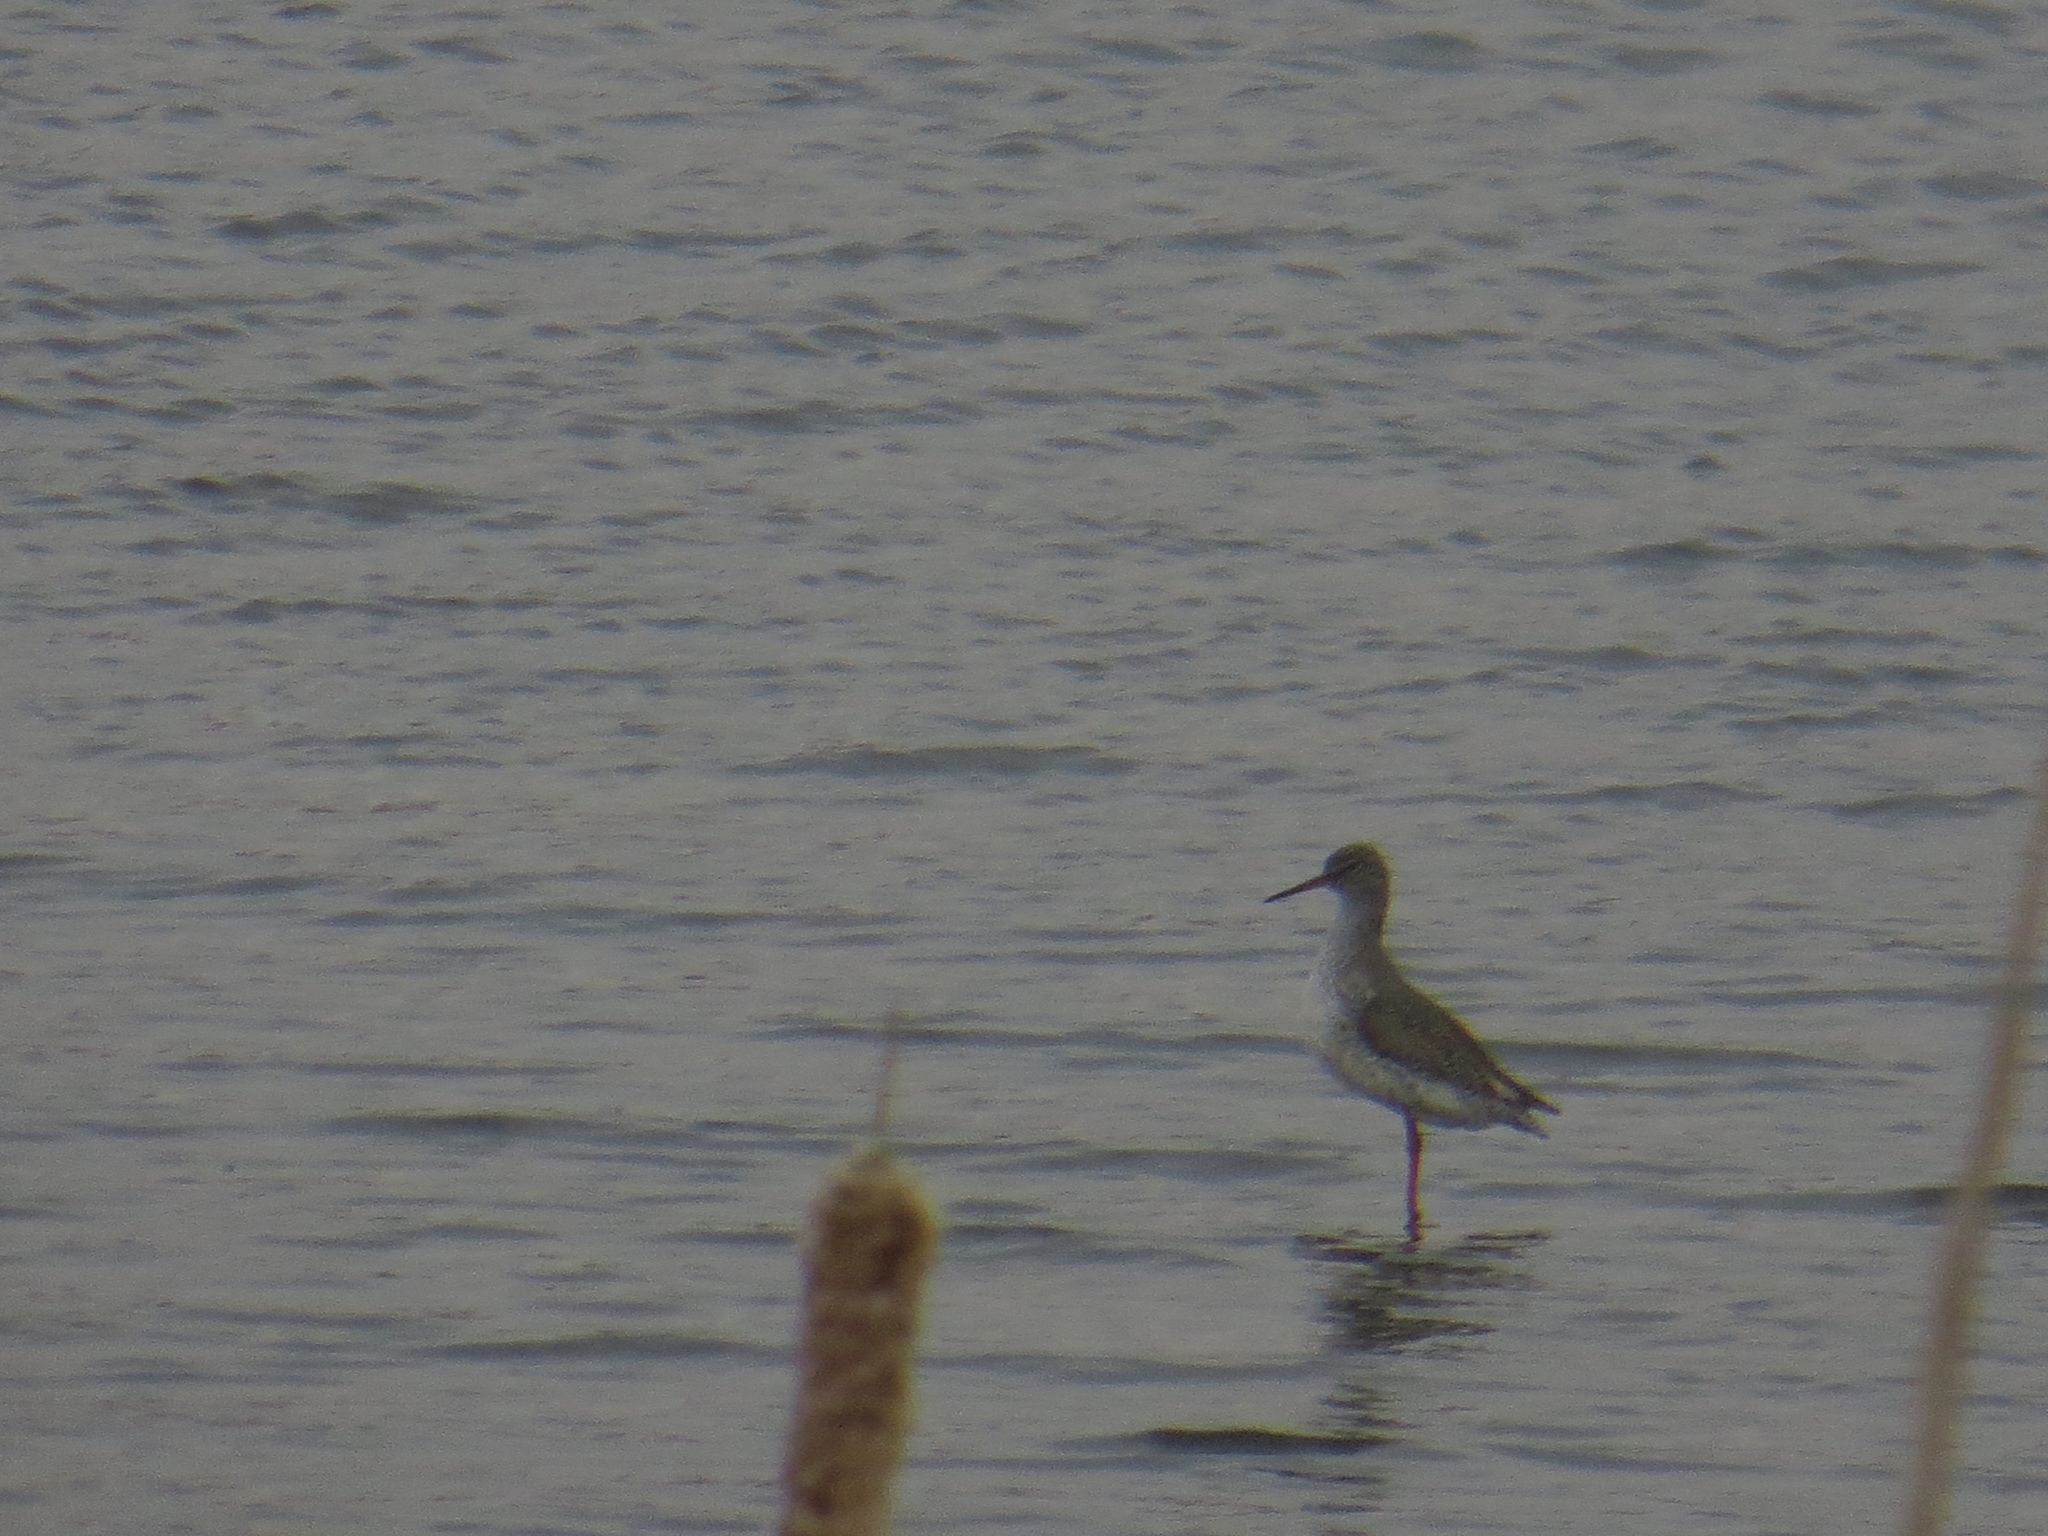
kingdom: Animalia
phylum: Chordata
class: Aves
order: Charadriiformes
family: Scolopacidae
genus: Tringa
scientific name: Tringa totanus
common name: Common redshank
